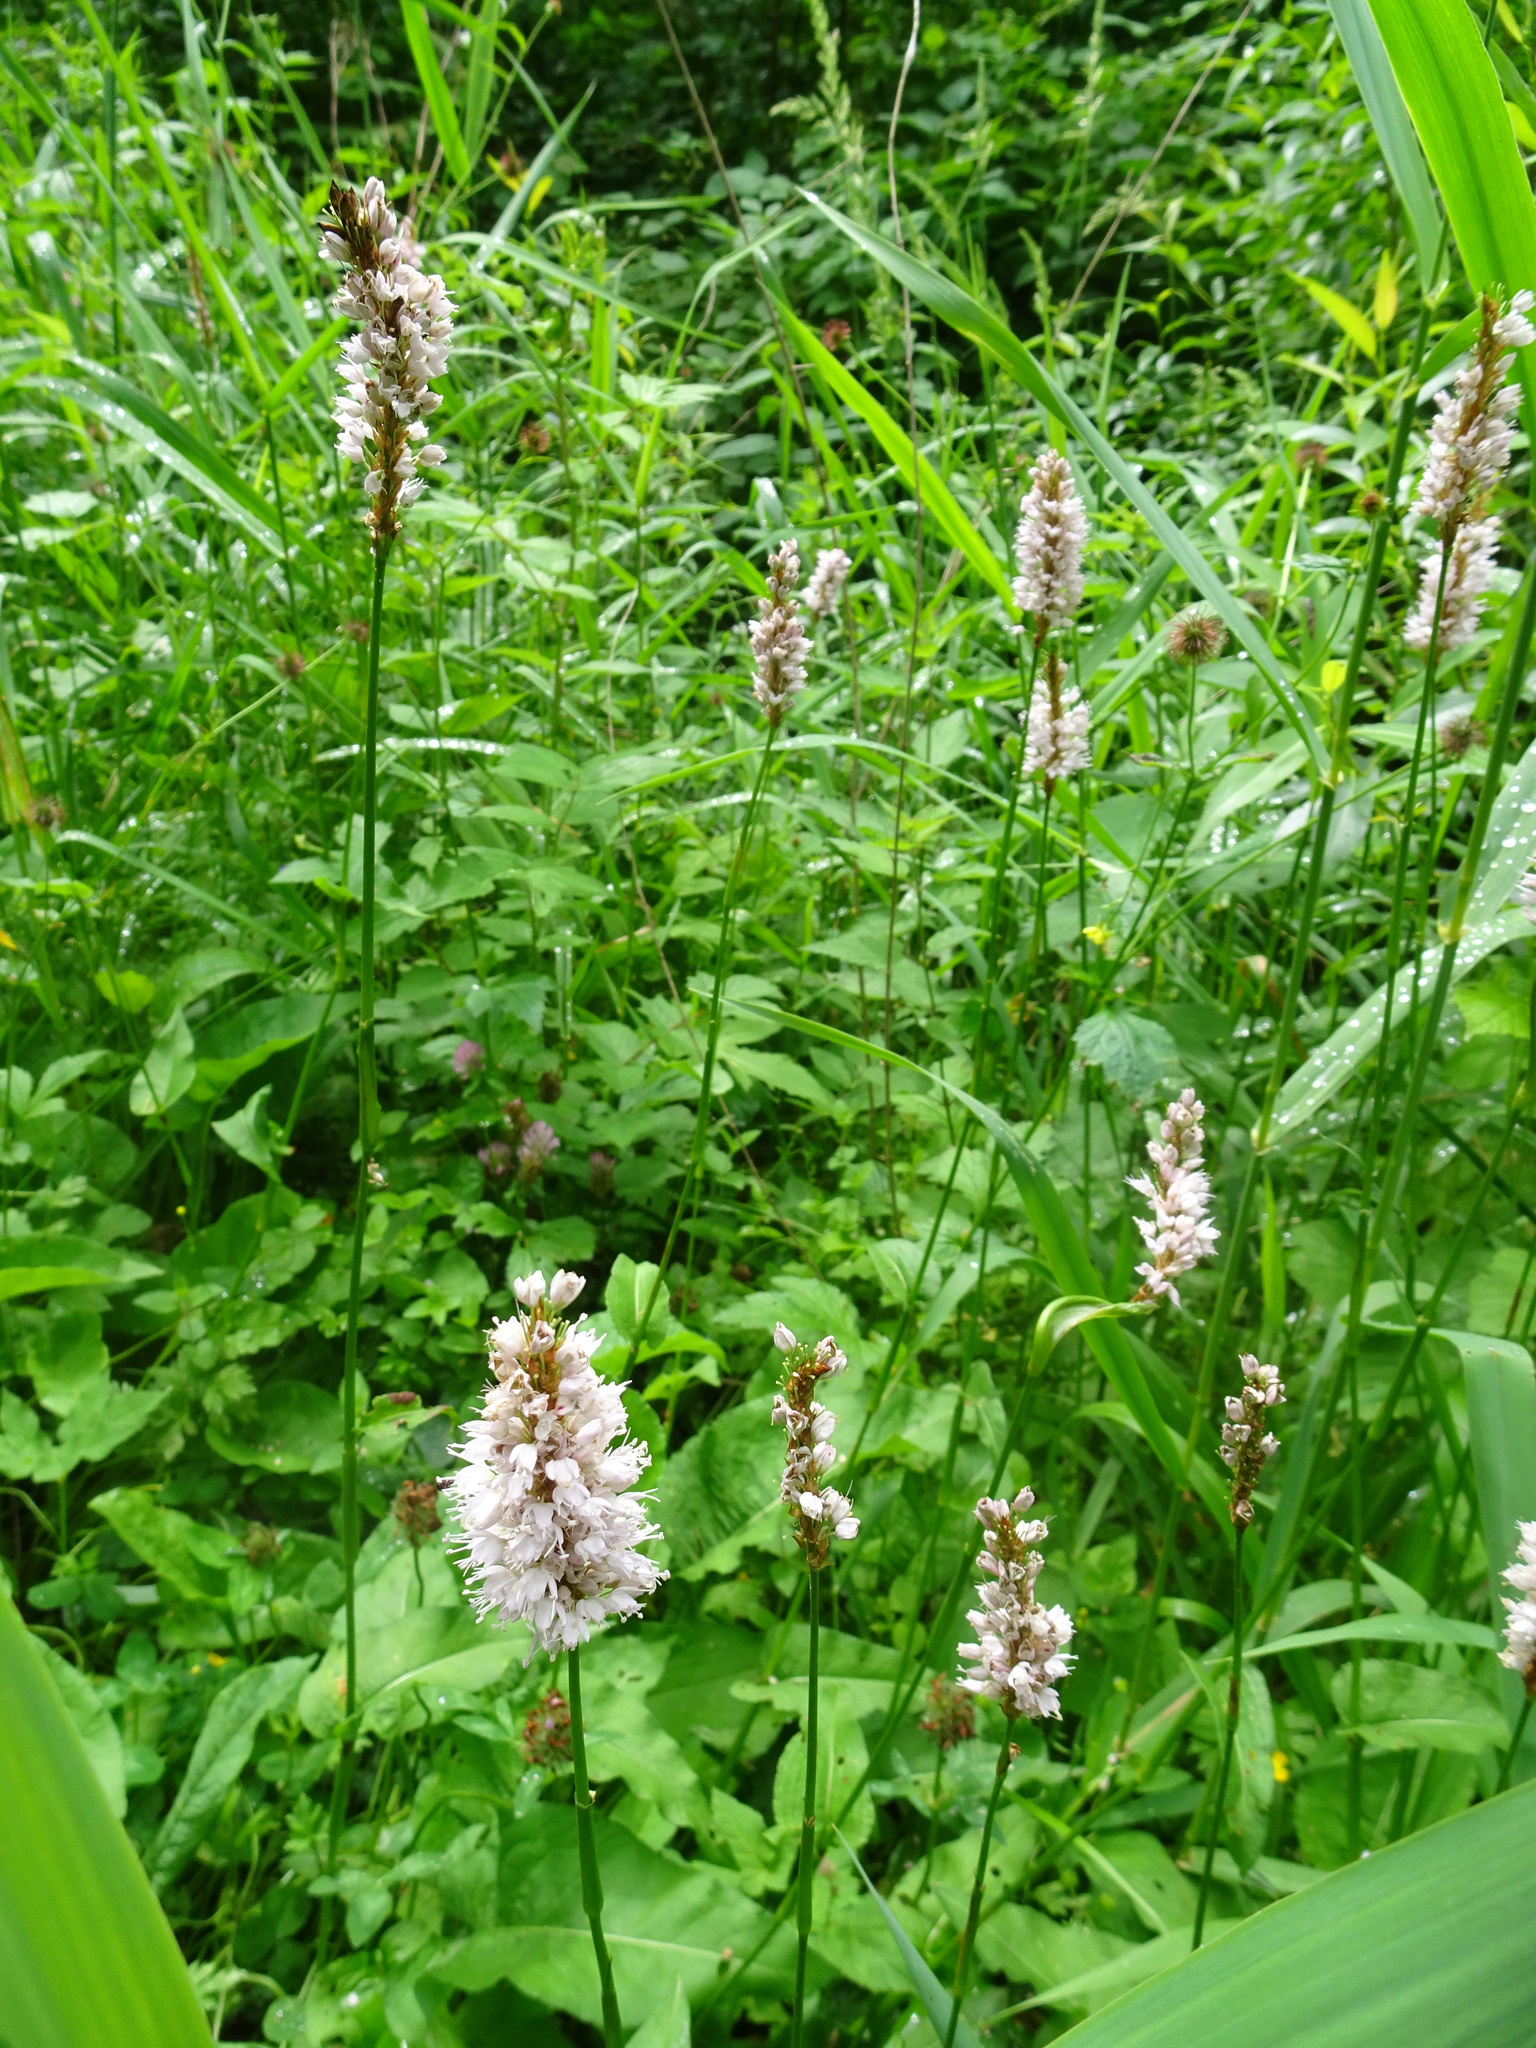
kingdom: Plantae
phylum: Tracheophyta
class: Magnoliopsida
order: Caryophyllales
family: Polygonaceae
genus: Bistorta
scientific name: Bistorta officinalis
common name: Common bistort
